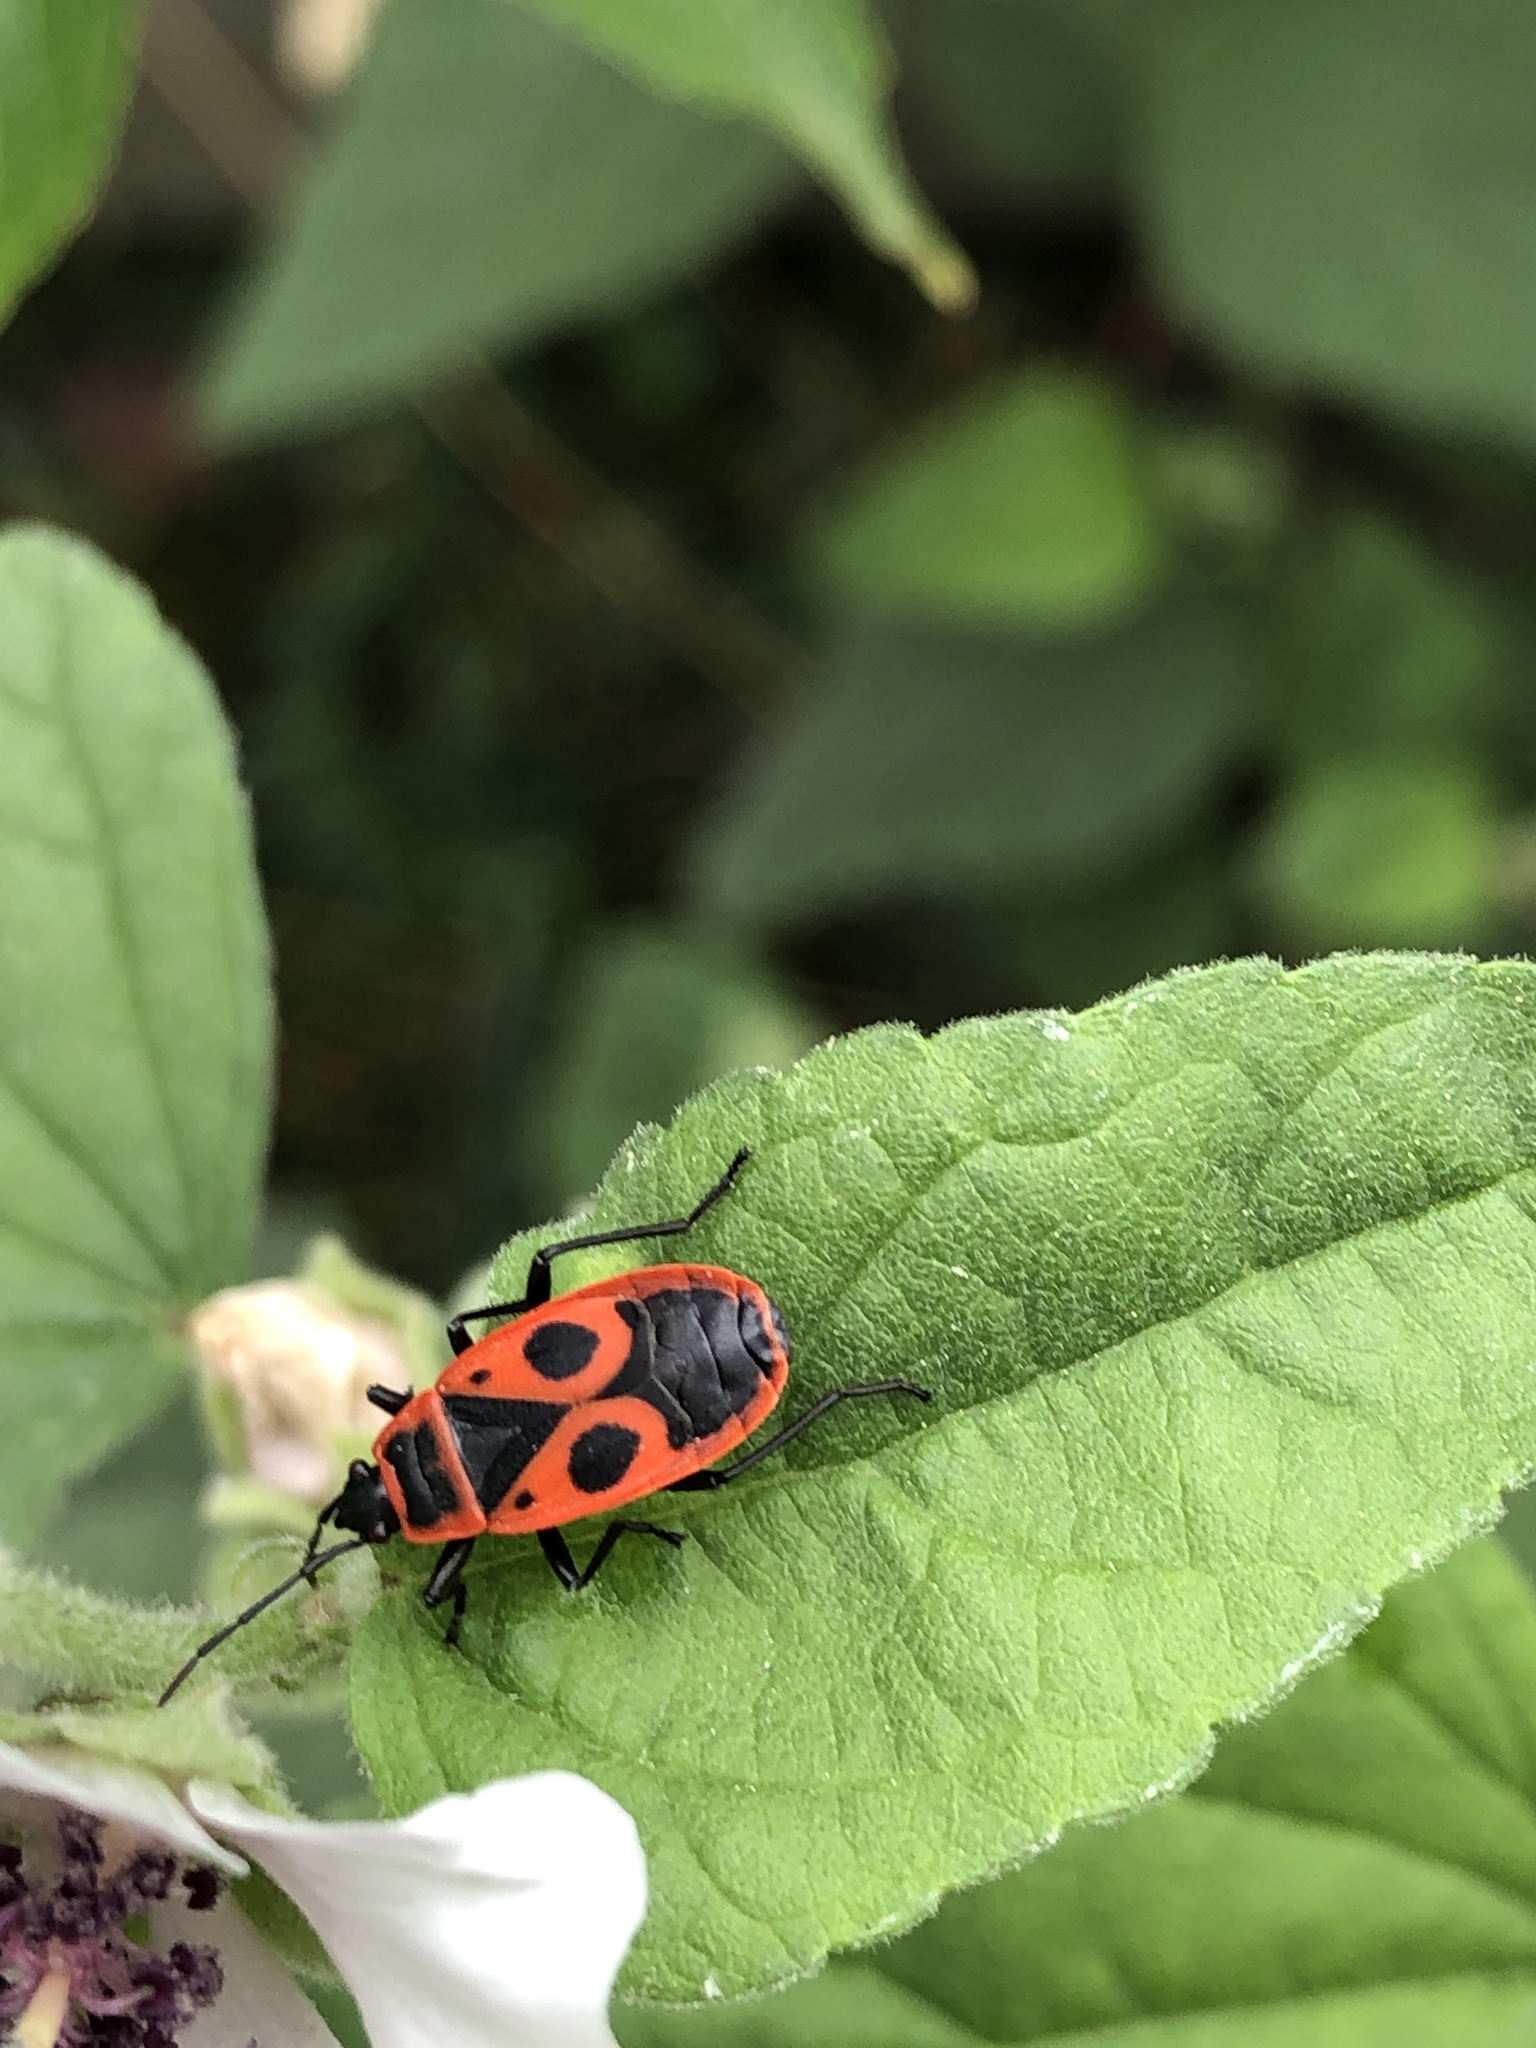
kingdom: Animalia
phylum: Arthropoda
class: Insecta
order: Hemiptera
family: Pyrrhocoridae
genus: Pyrrhocoris
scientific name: Pyrrhocoris apterus
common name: Firebug
